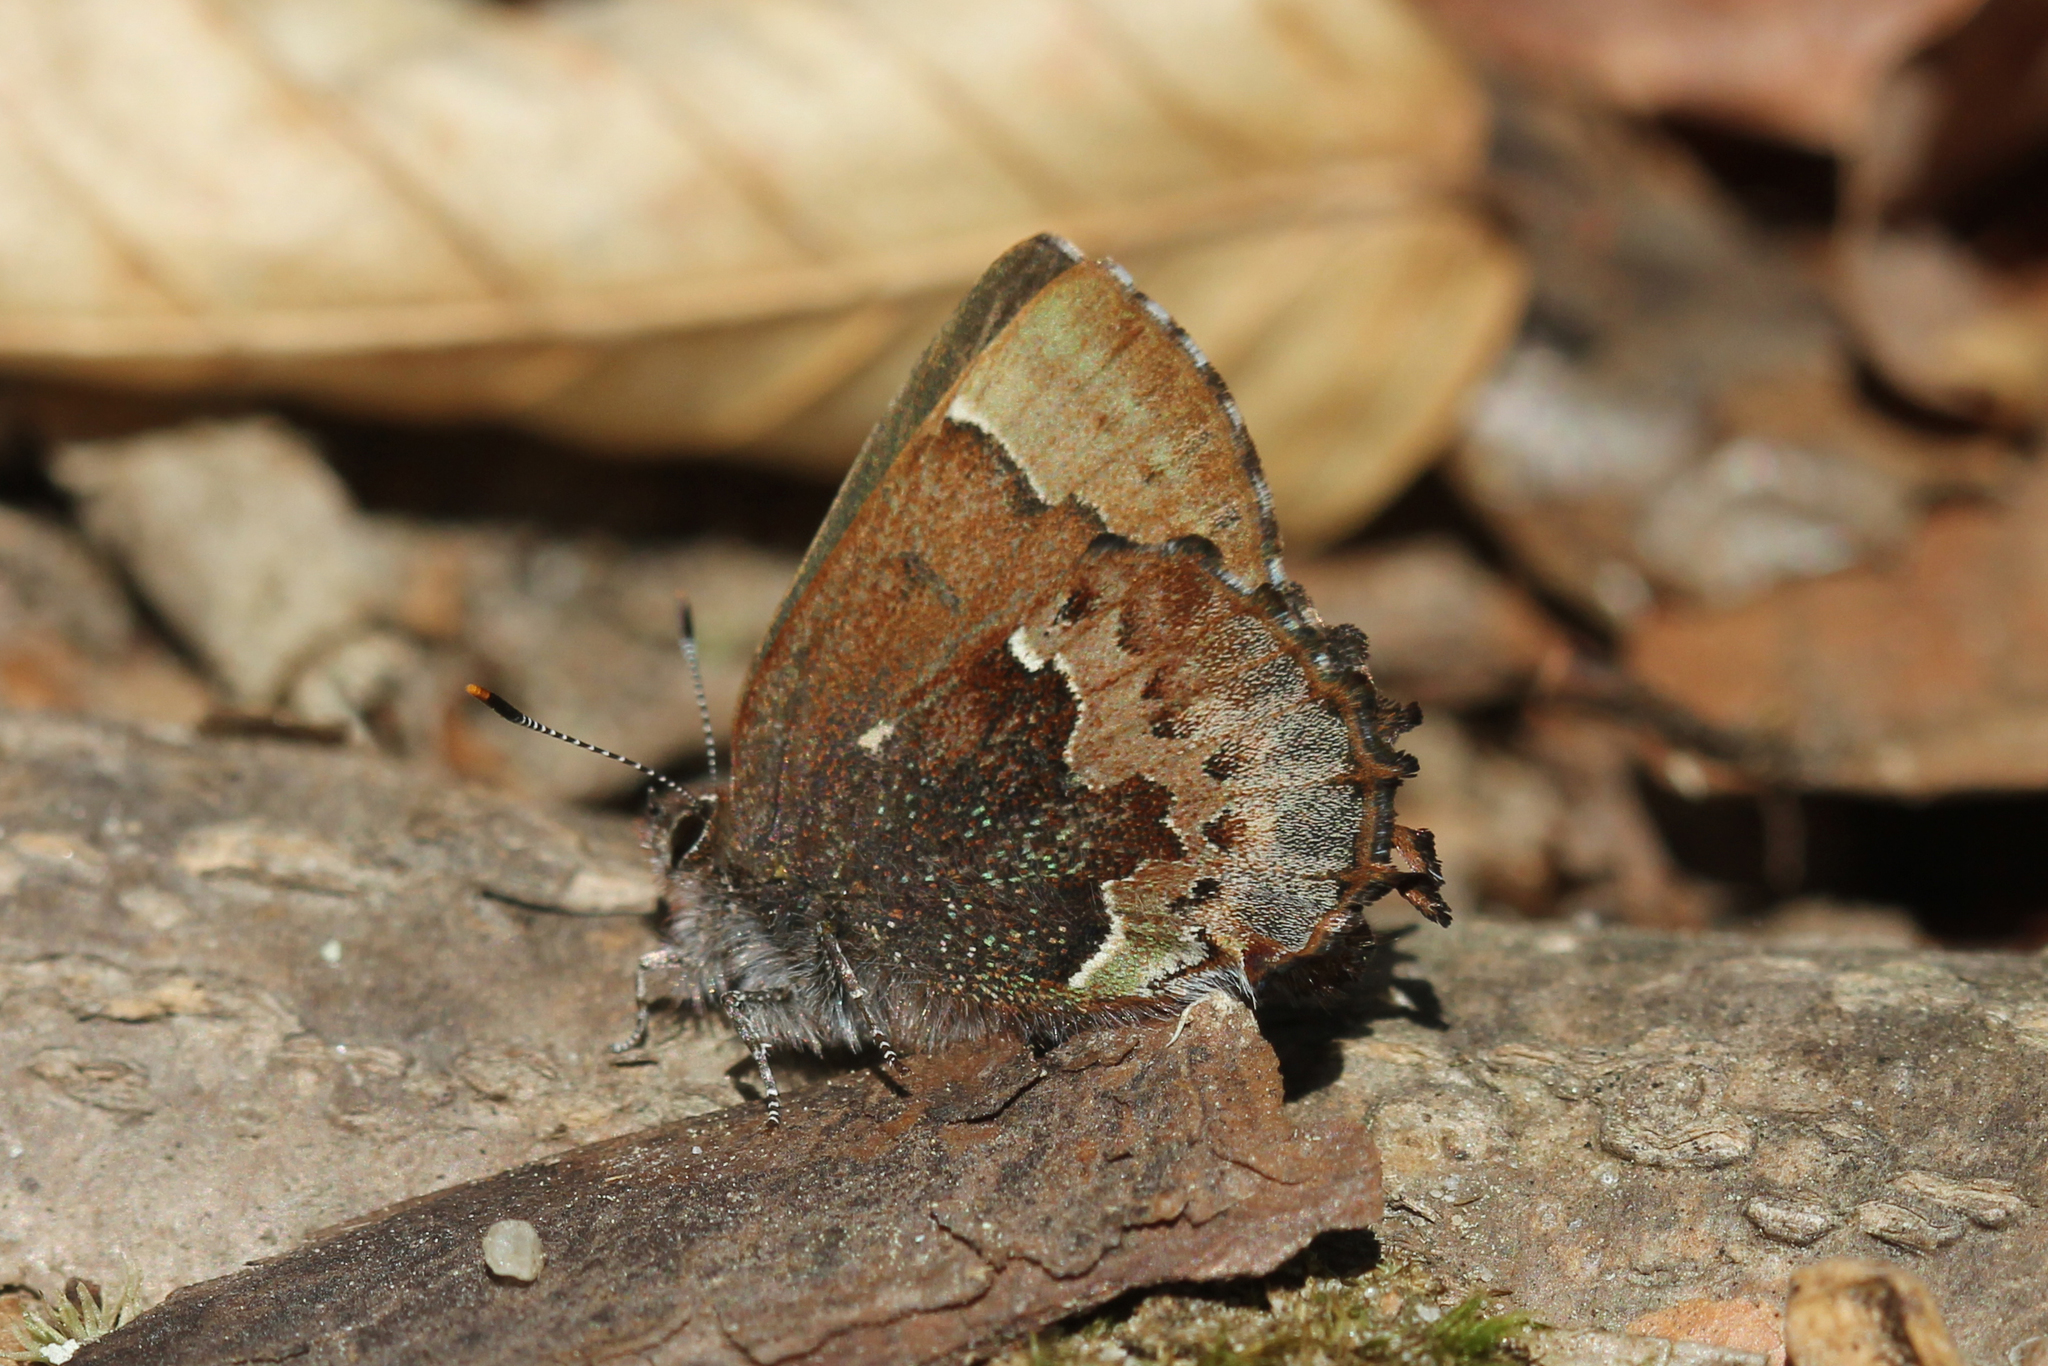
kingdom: Animalia
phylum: Arthropoda
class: Insecta
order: Lepidoptera
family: Lycaenidae
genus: Incisalia
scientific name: Incisalia henrici
